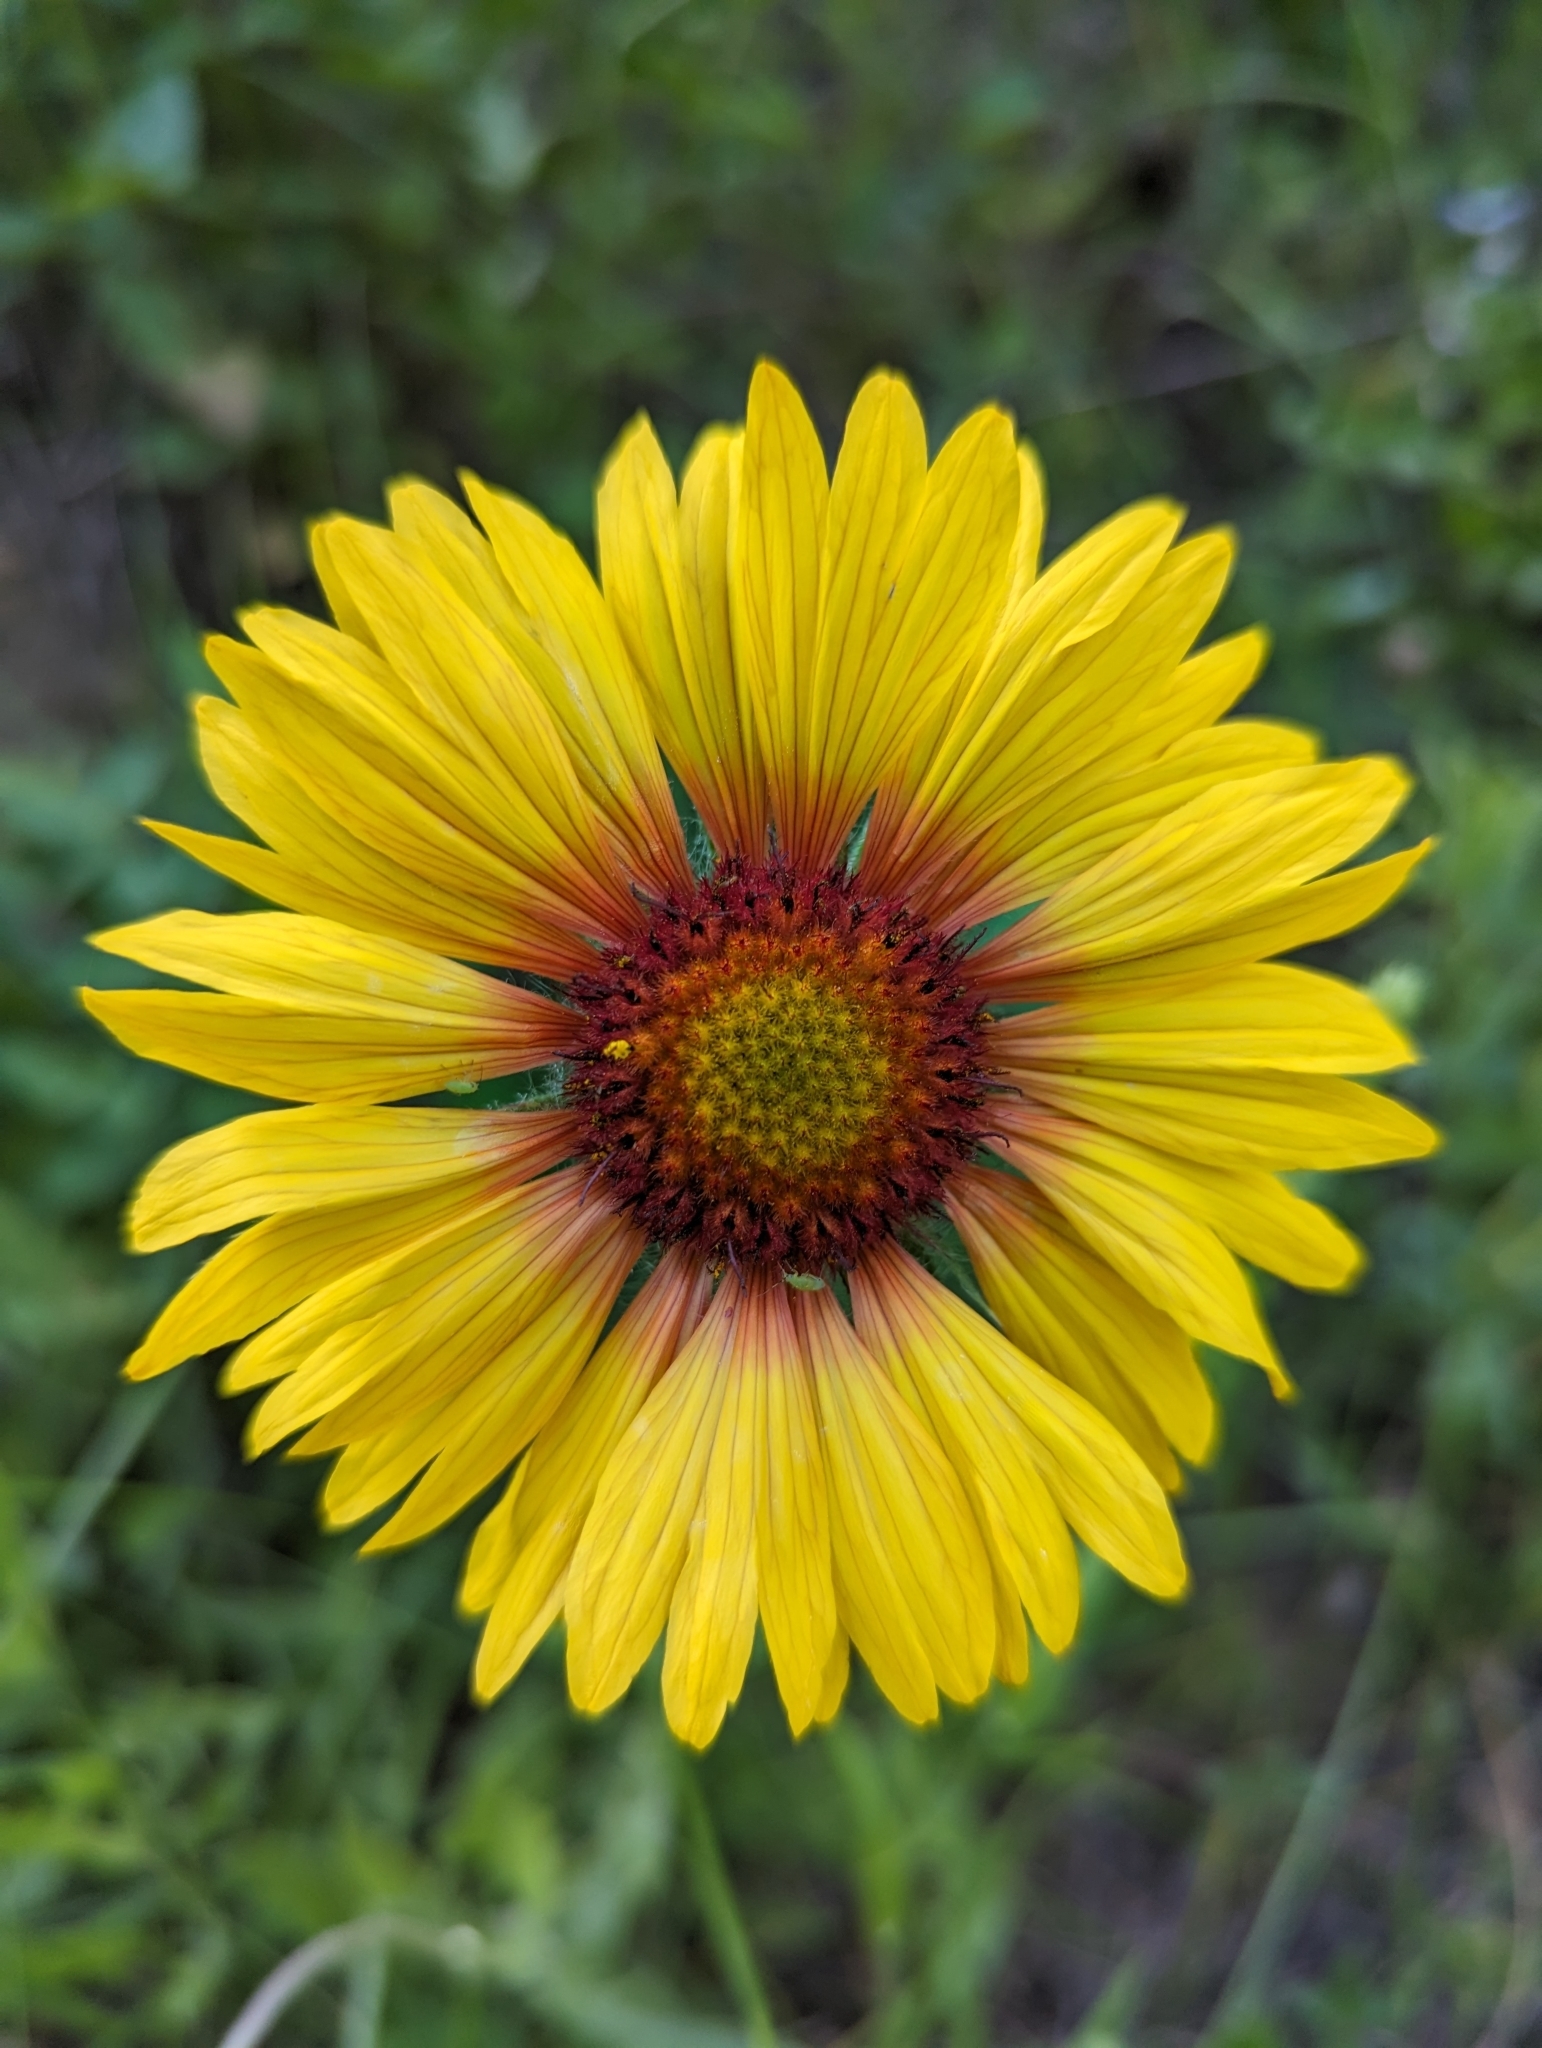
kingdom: Plantae
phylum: Tracheophyta
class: Magnoliopsida
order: Asterales
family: Asteraceae
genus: Gaillardia
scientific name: Gaillardia aristata
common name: Blanket-flower
